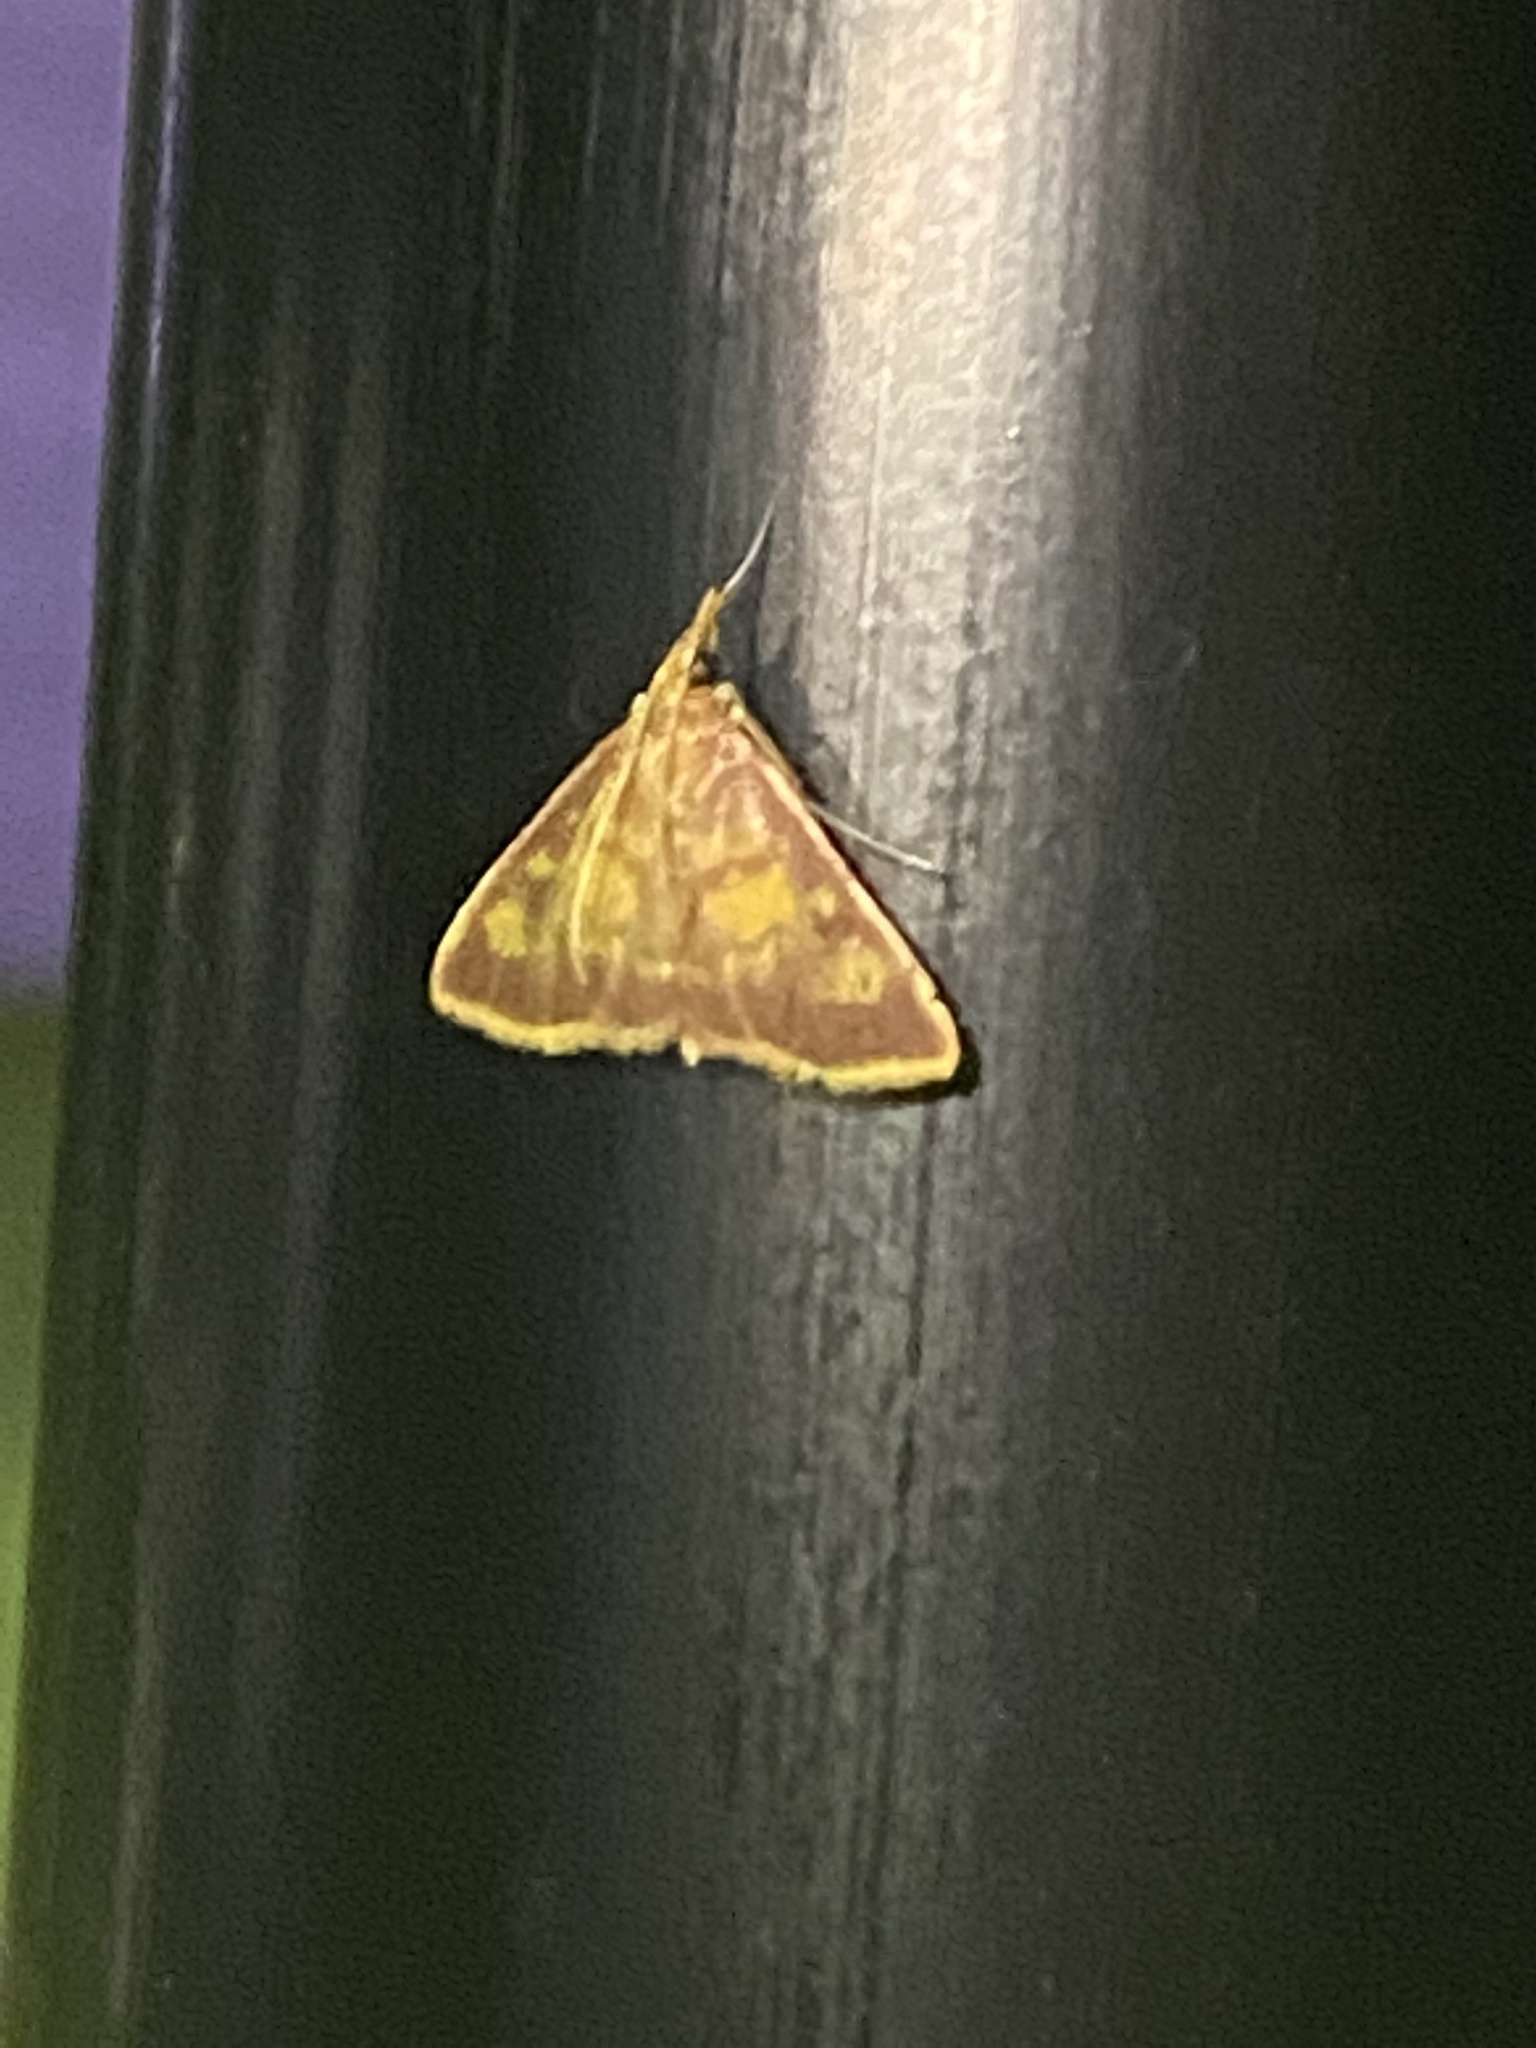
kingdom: Animalia
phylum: Arthropoda
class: Insecta
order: Lepidoptera
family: Crambidae
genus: Pyrausta
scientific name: Pyrausta acrionalis
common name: Mint-loving pyrausta moth
